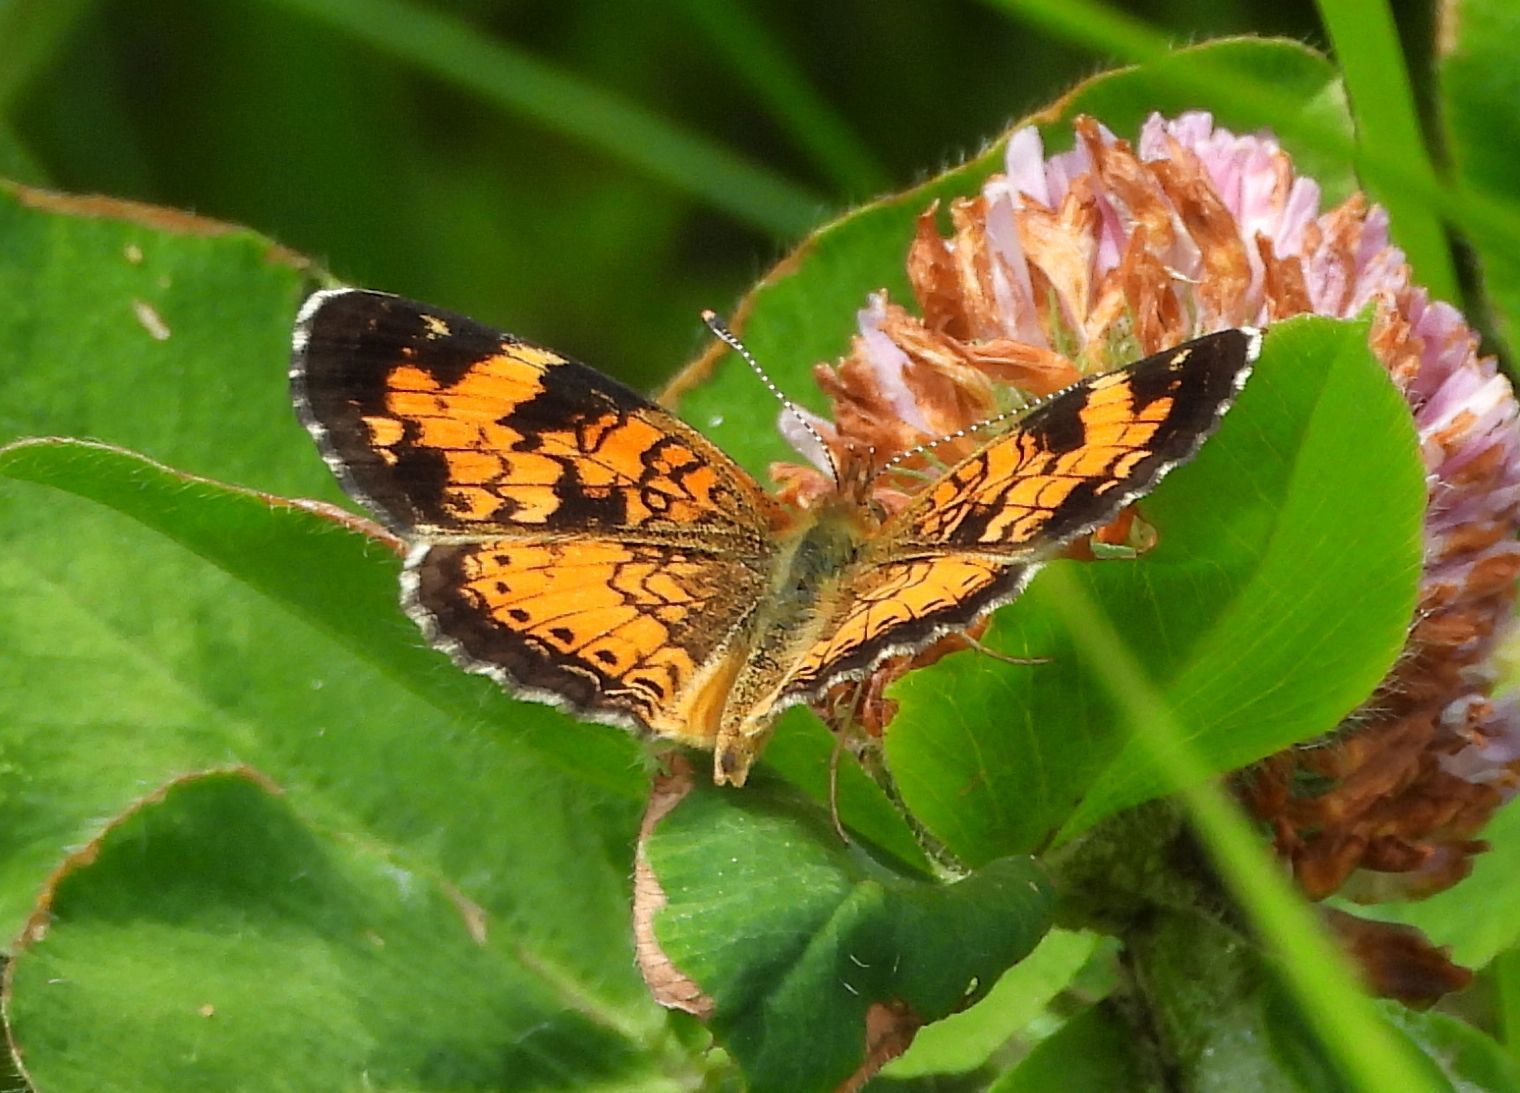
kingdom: Animalia
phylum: Arthropoda
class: Insecta
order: Lepidoptera
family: Nymphalidae
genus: Phyciodes
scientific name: Phyciodes tharos
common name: Pearl crescent
